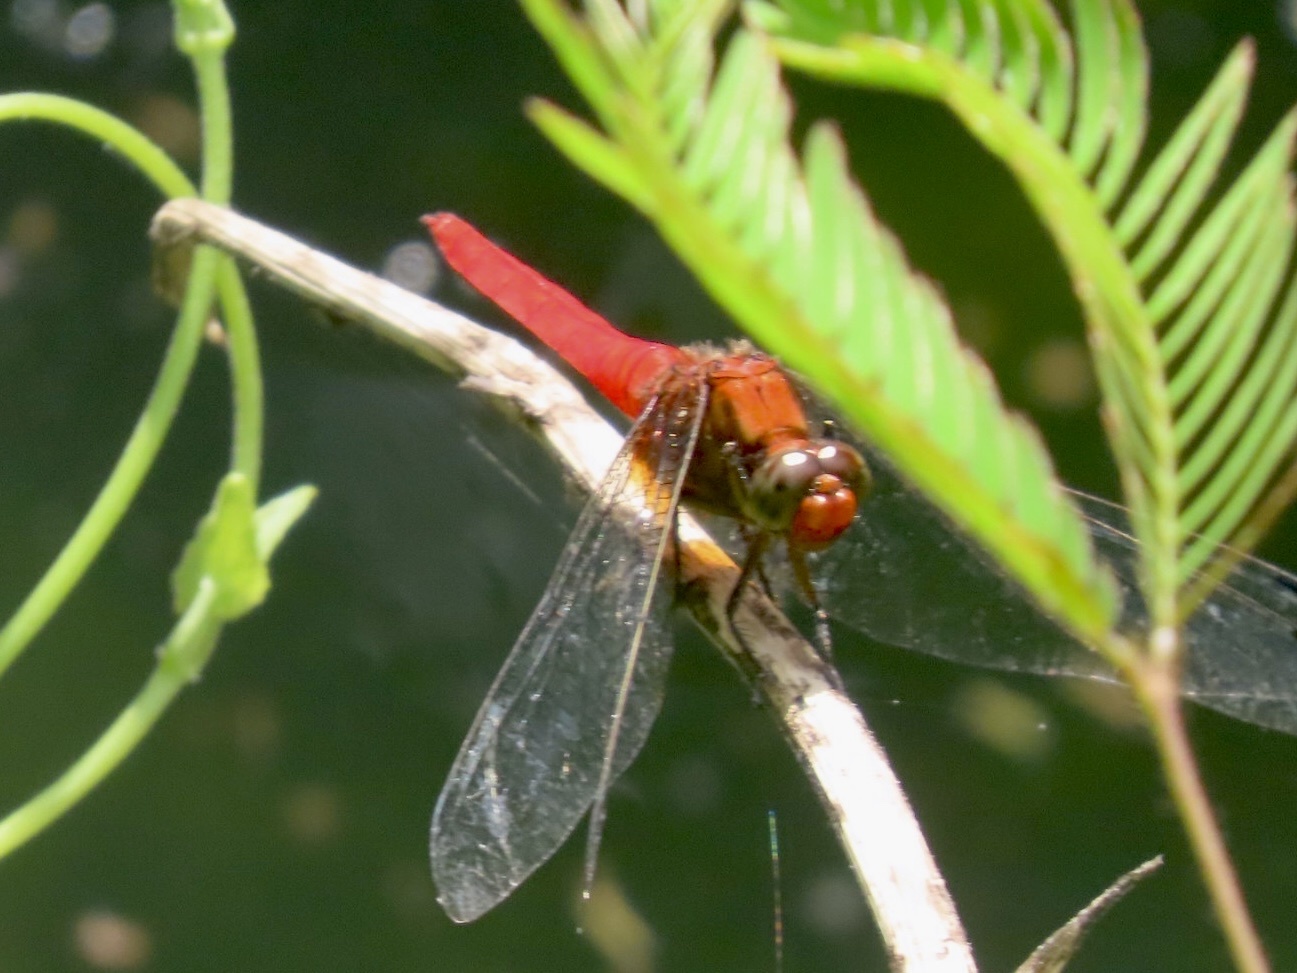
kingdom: Animalia
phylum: Arthropoda
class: Insecta
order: Odonata
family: Libellulidae
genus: Orthetrum
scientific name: Orthetrum testaceum
